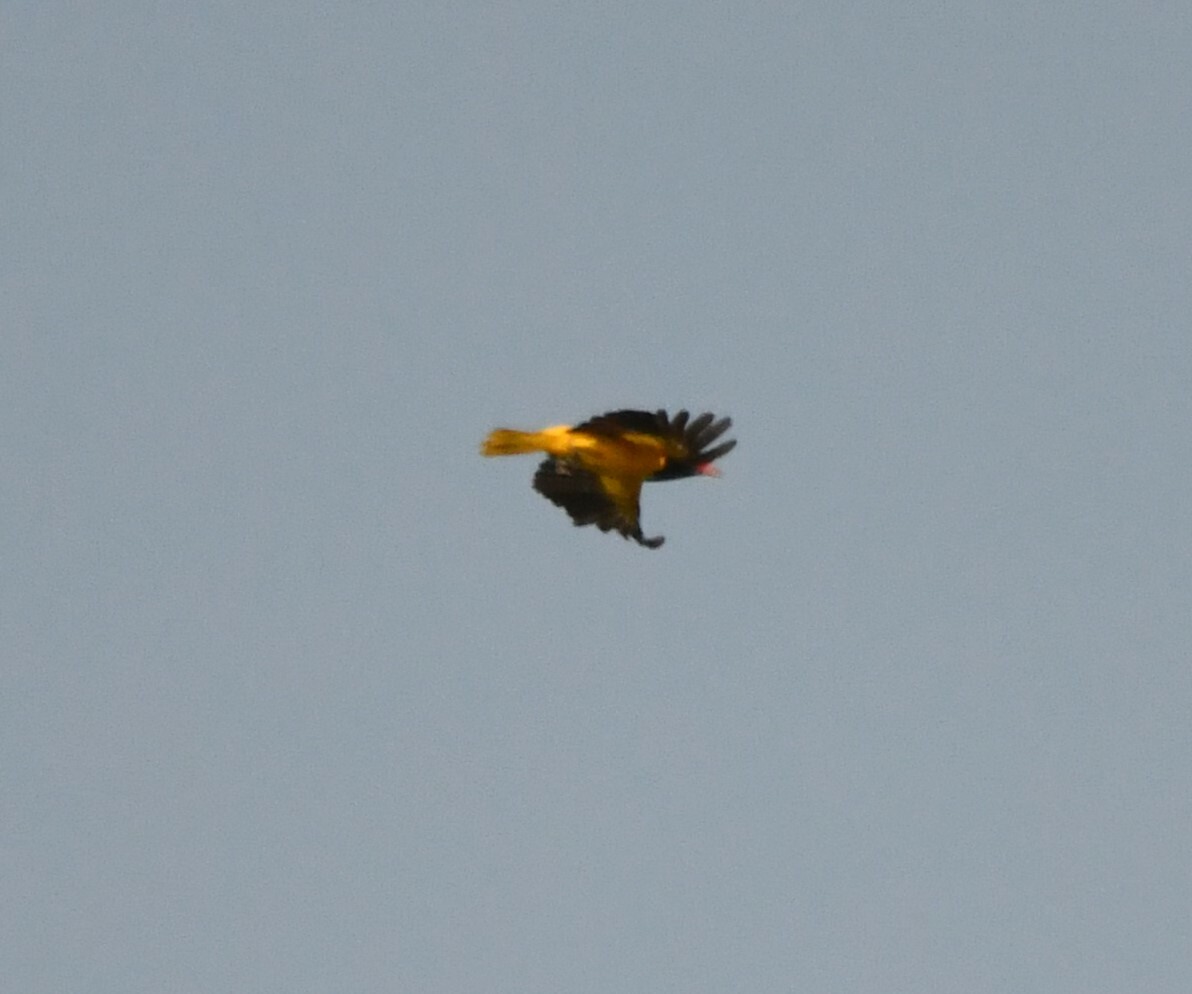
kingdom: Animalia
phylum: Chordata
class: Aves
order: Passeriformes
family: Oriolidae
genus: Oriolus
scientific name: Oriolus xanthornus
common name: Black-hooded oriole
